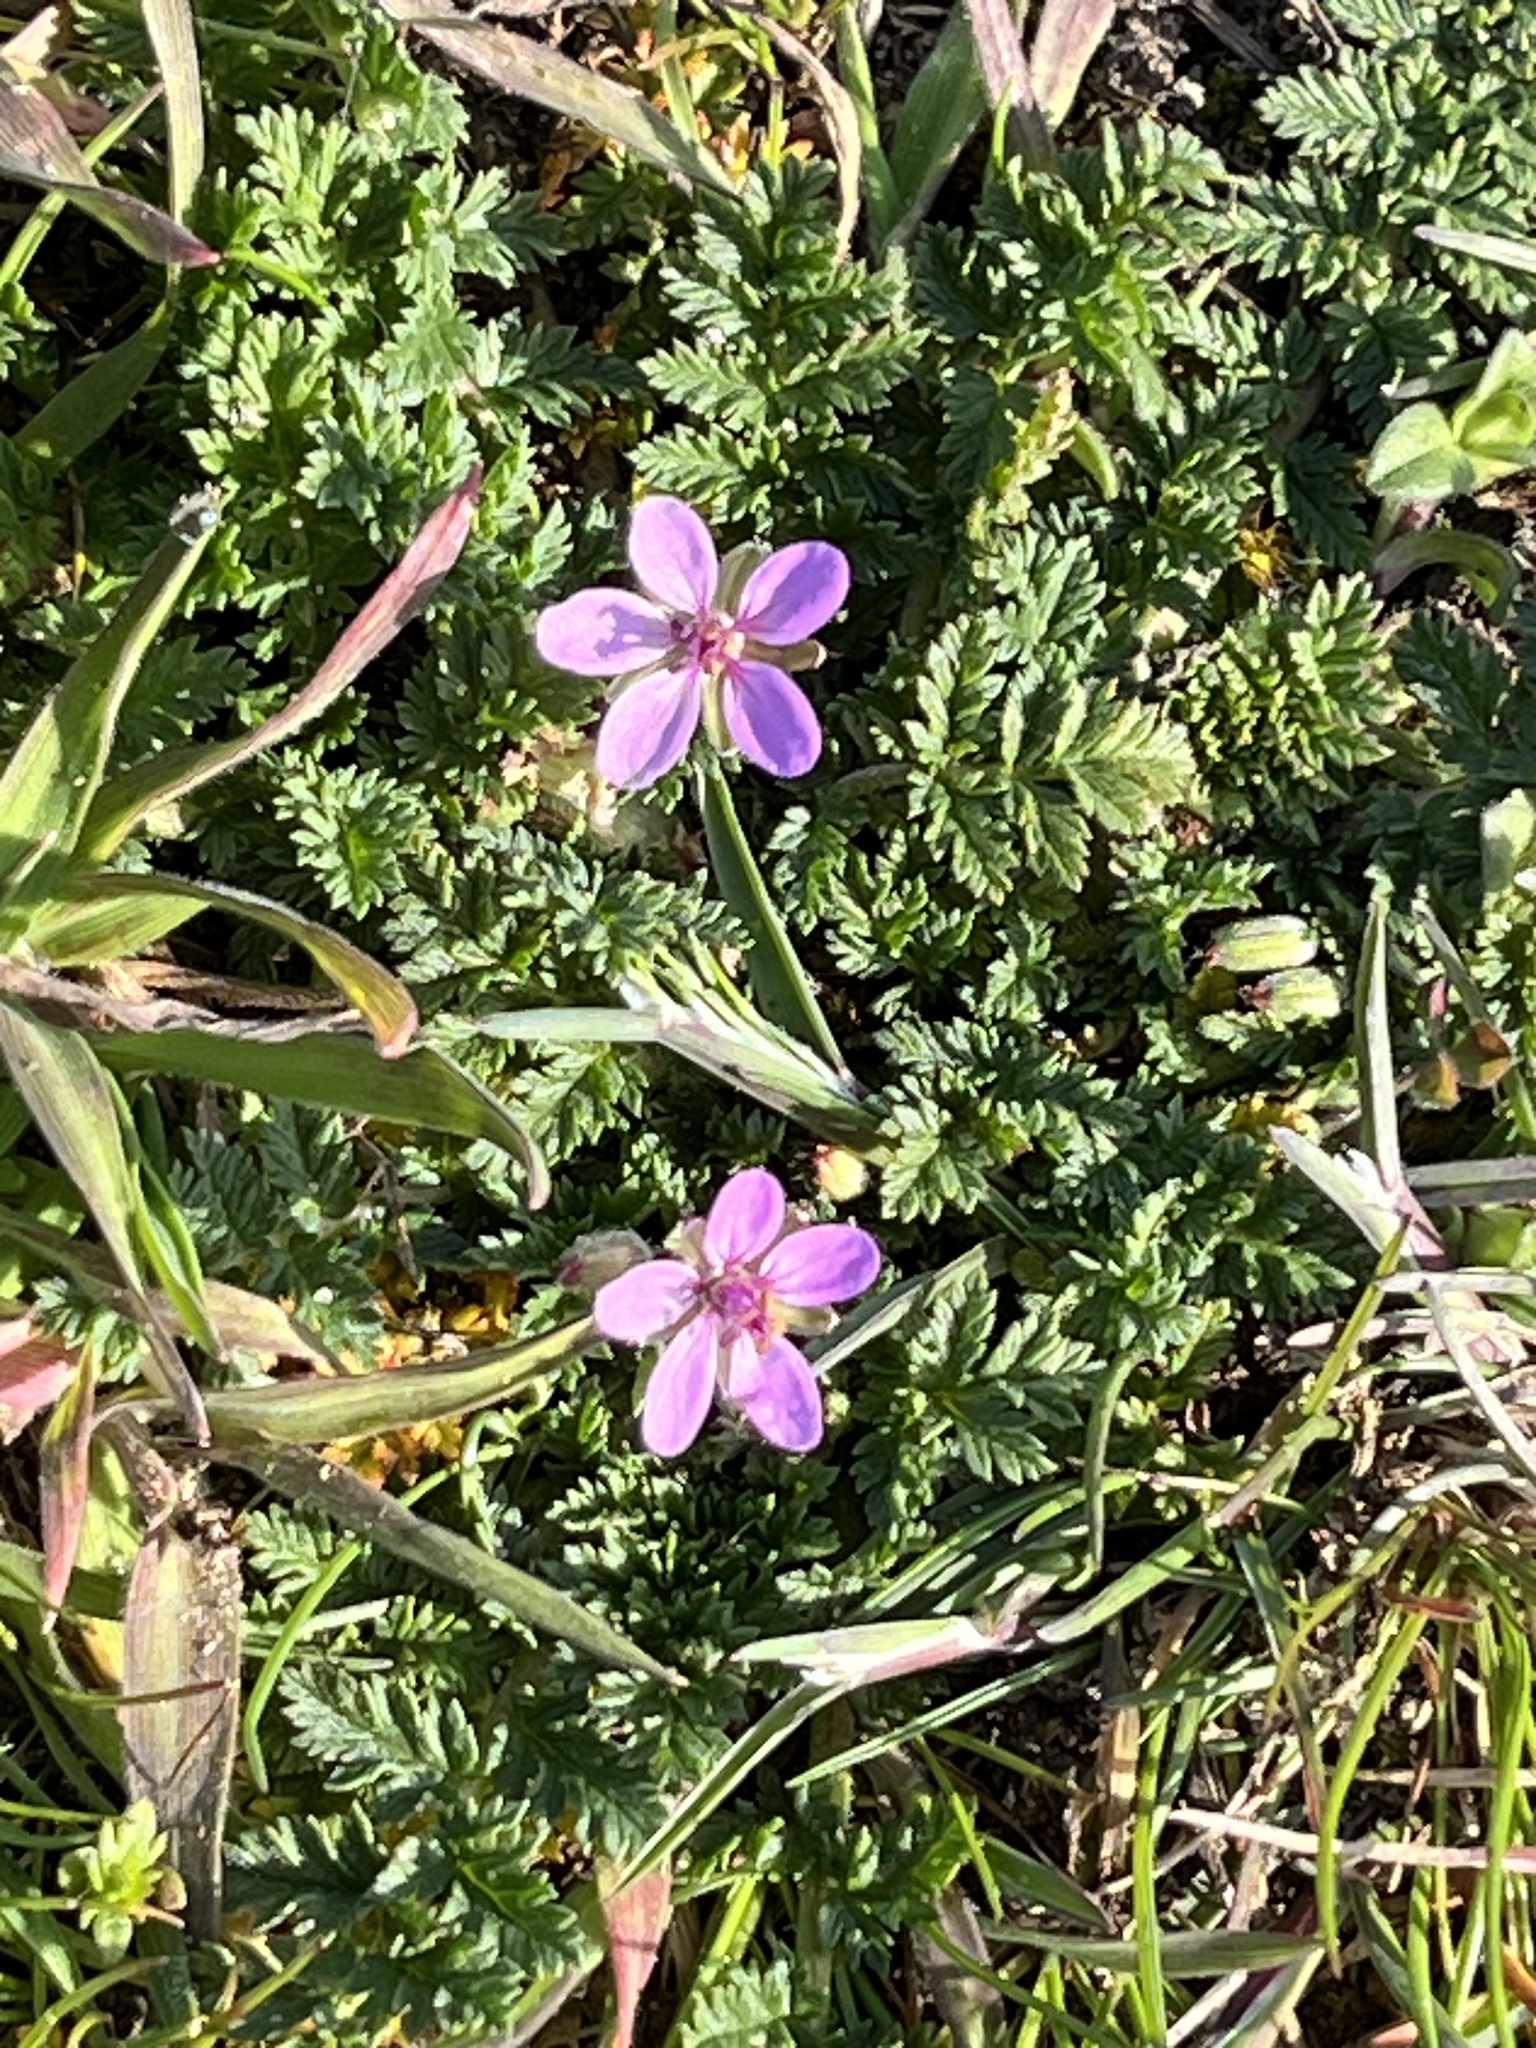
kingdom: Plantae
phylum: Tracheophyta
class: Magnoliopsida
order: Geraniales
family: Geraniaceae
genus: Erodium
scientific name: Erodium cicutarium
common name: Common stork's-bill
